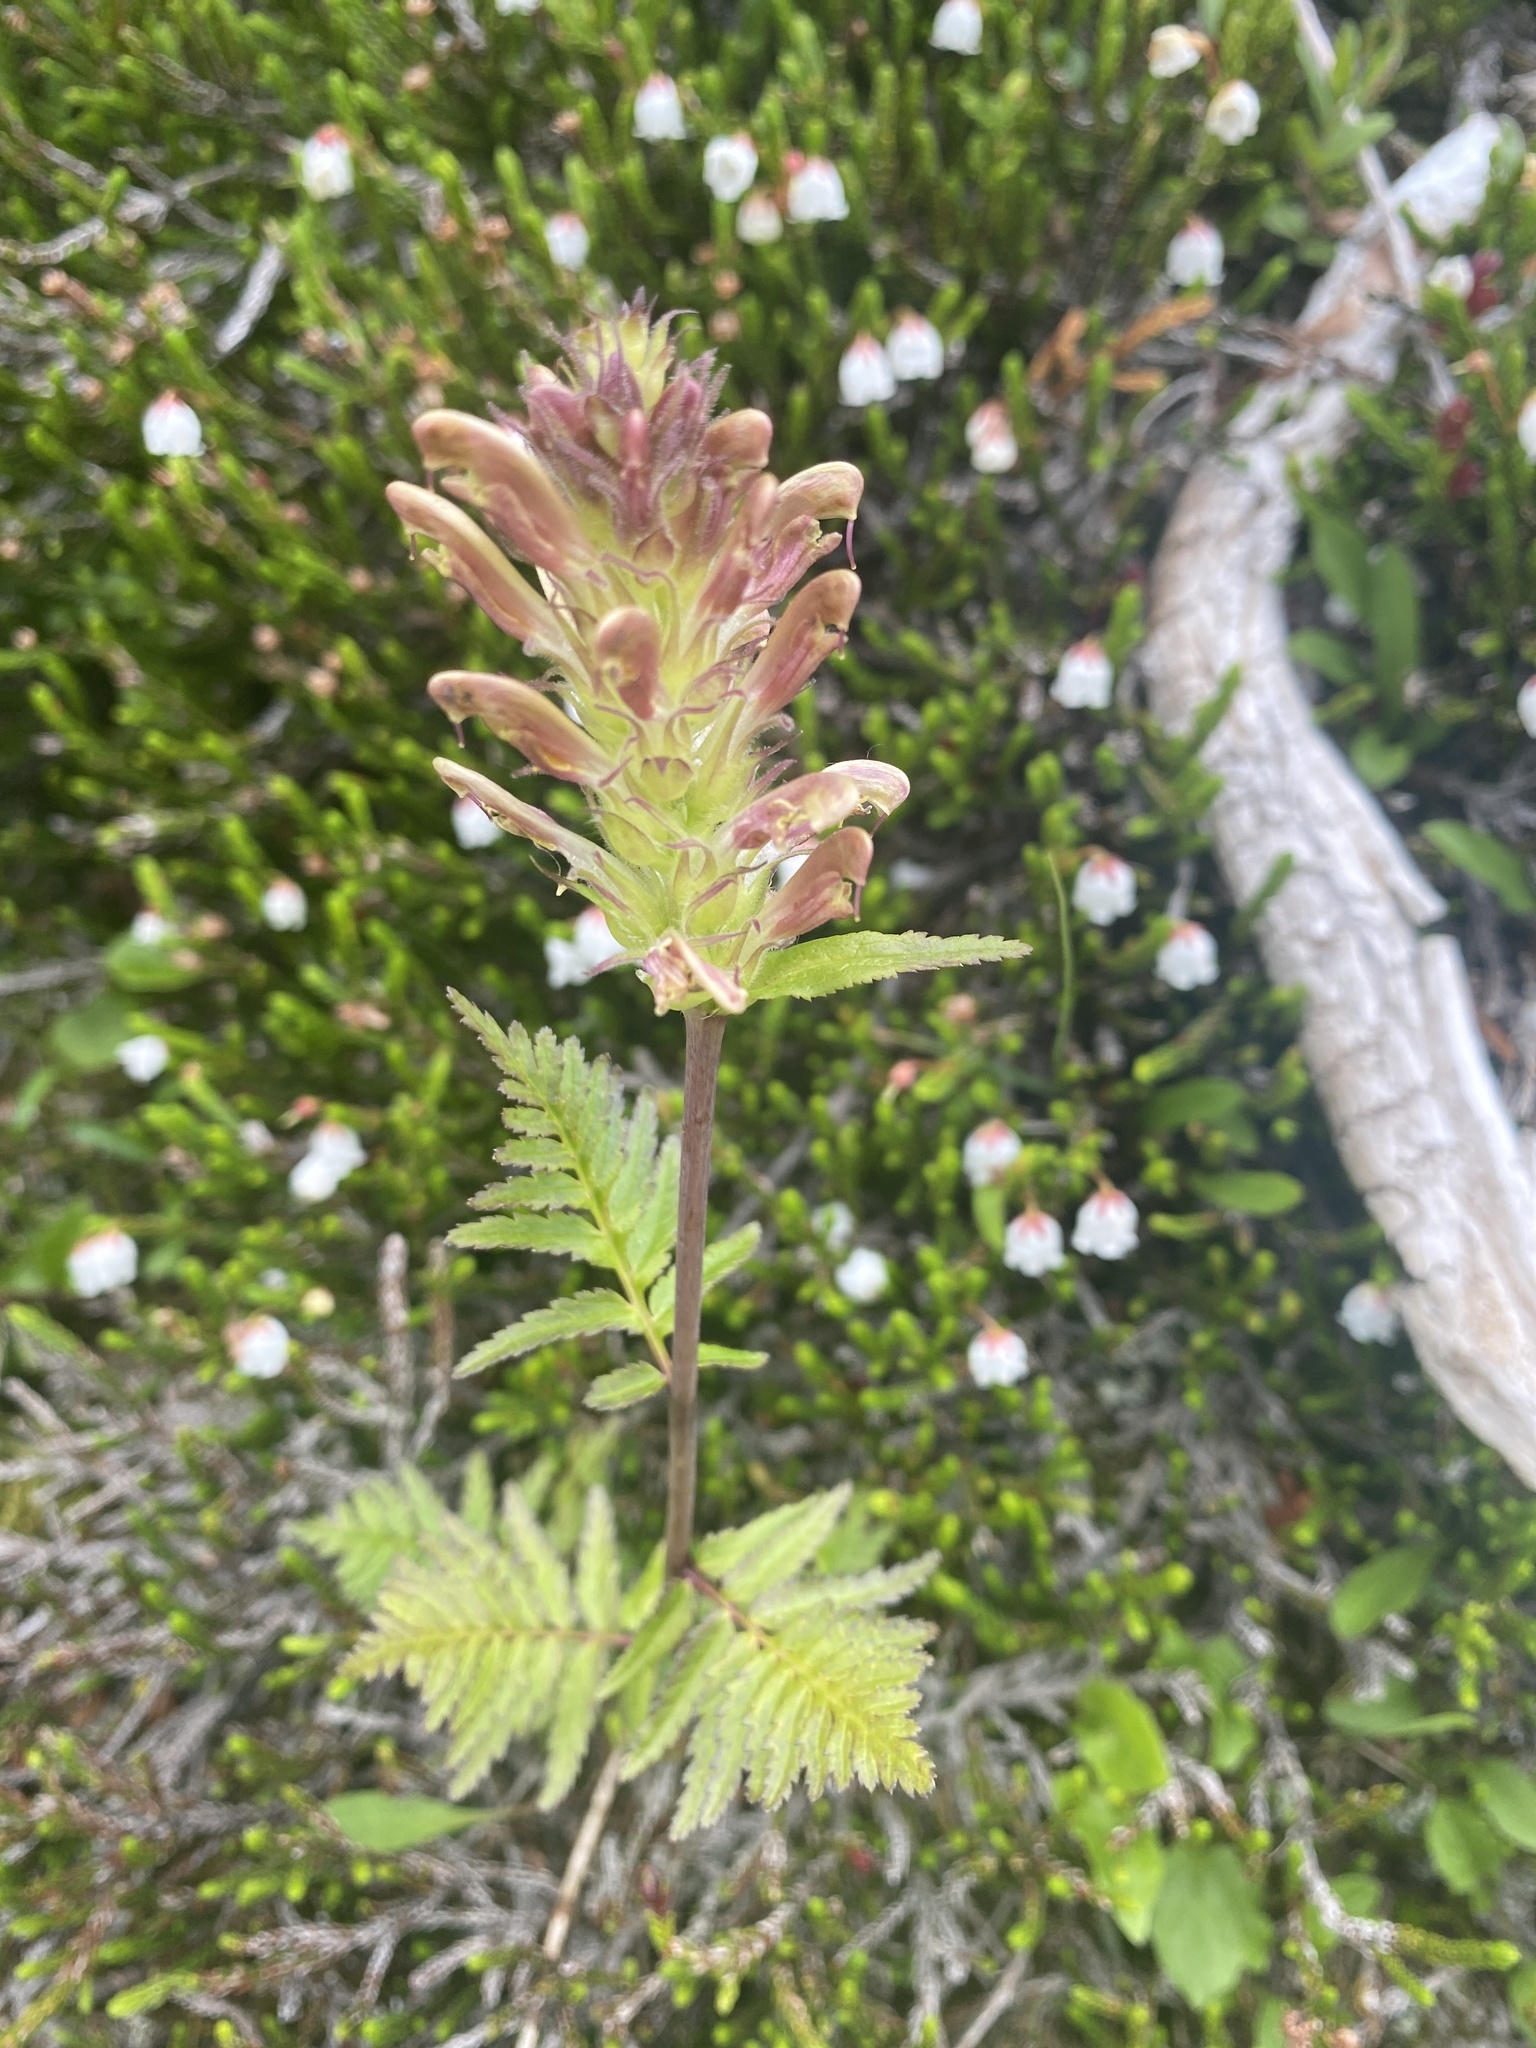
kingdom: Plantae
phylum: Tracheophyta
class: Magnoliopsida
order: Lamiales
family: Orobanchaceae
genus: Pedicularis
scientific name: Pedicularis bracteosa
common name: Bracted lousewort
